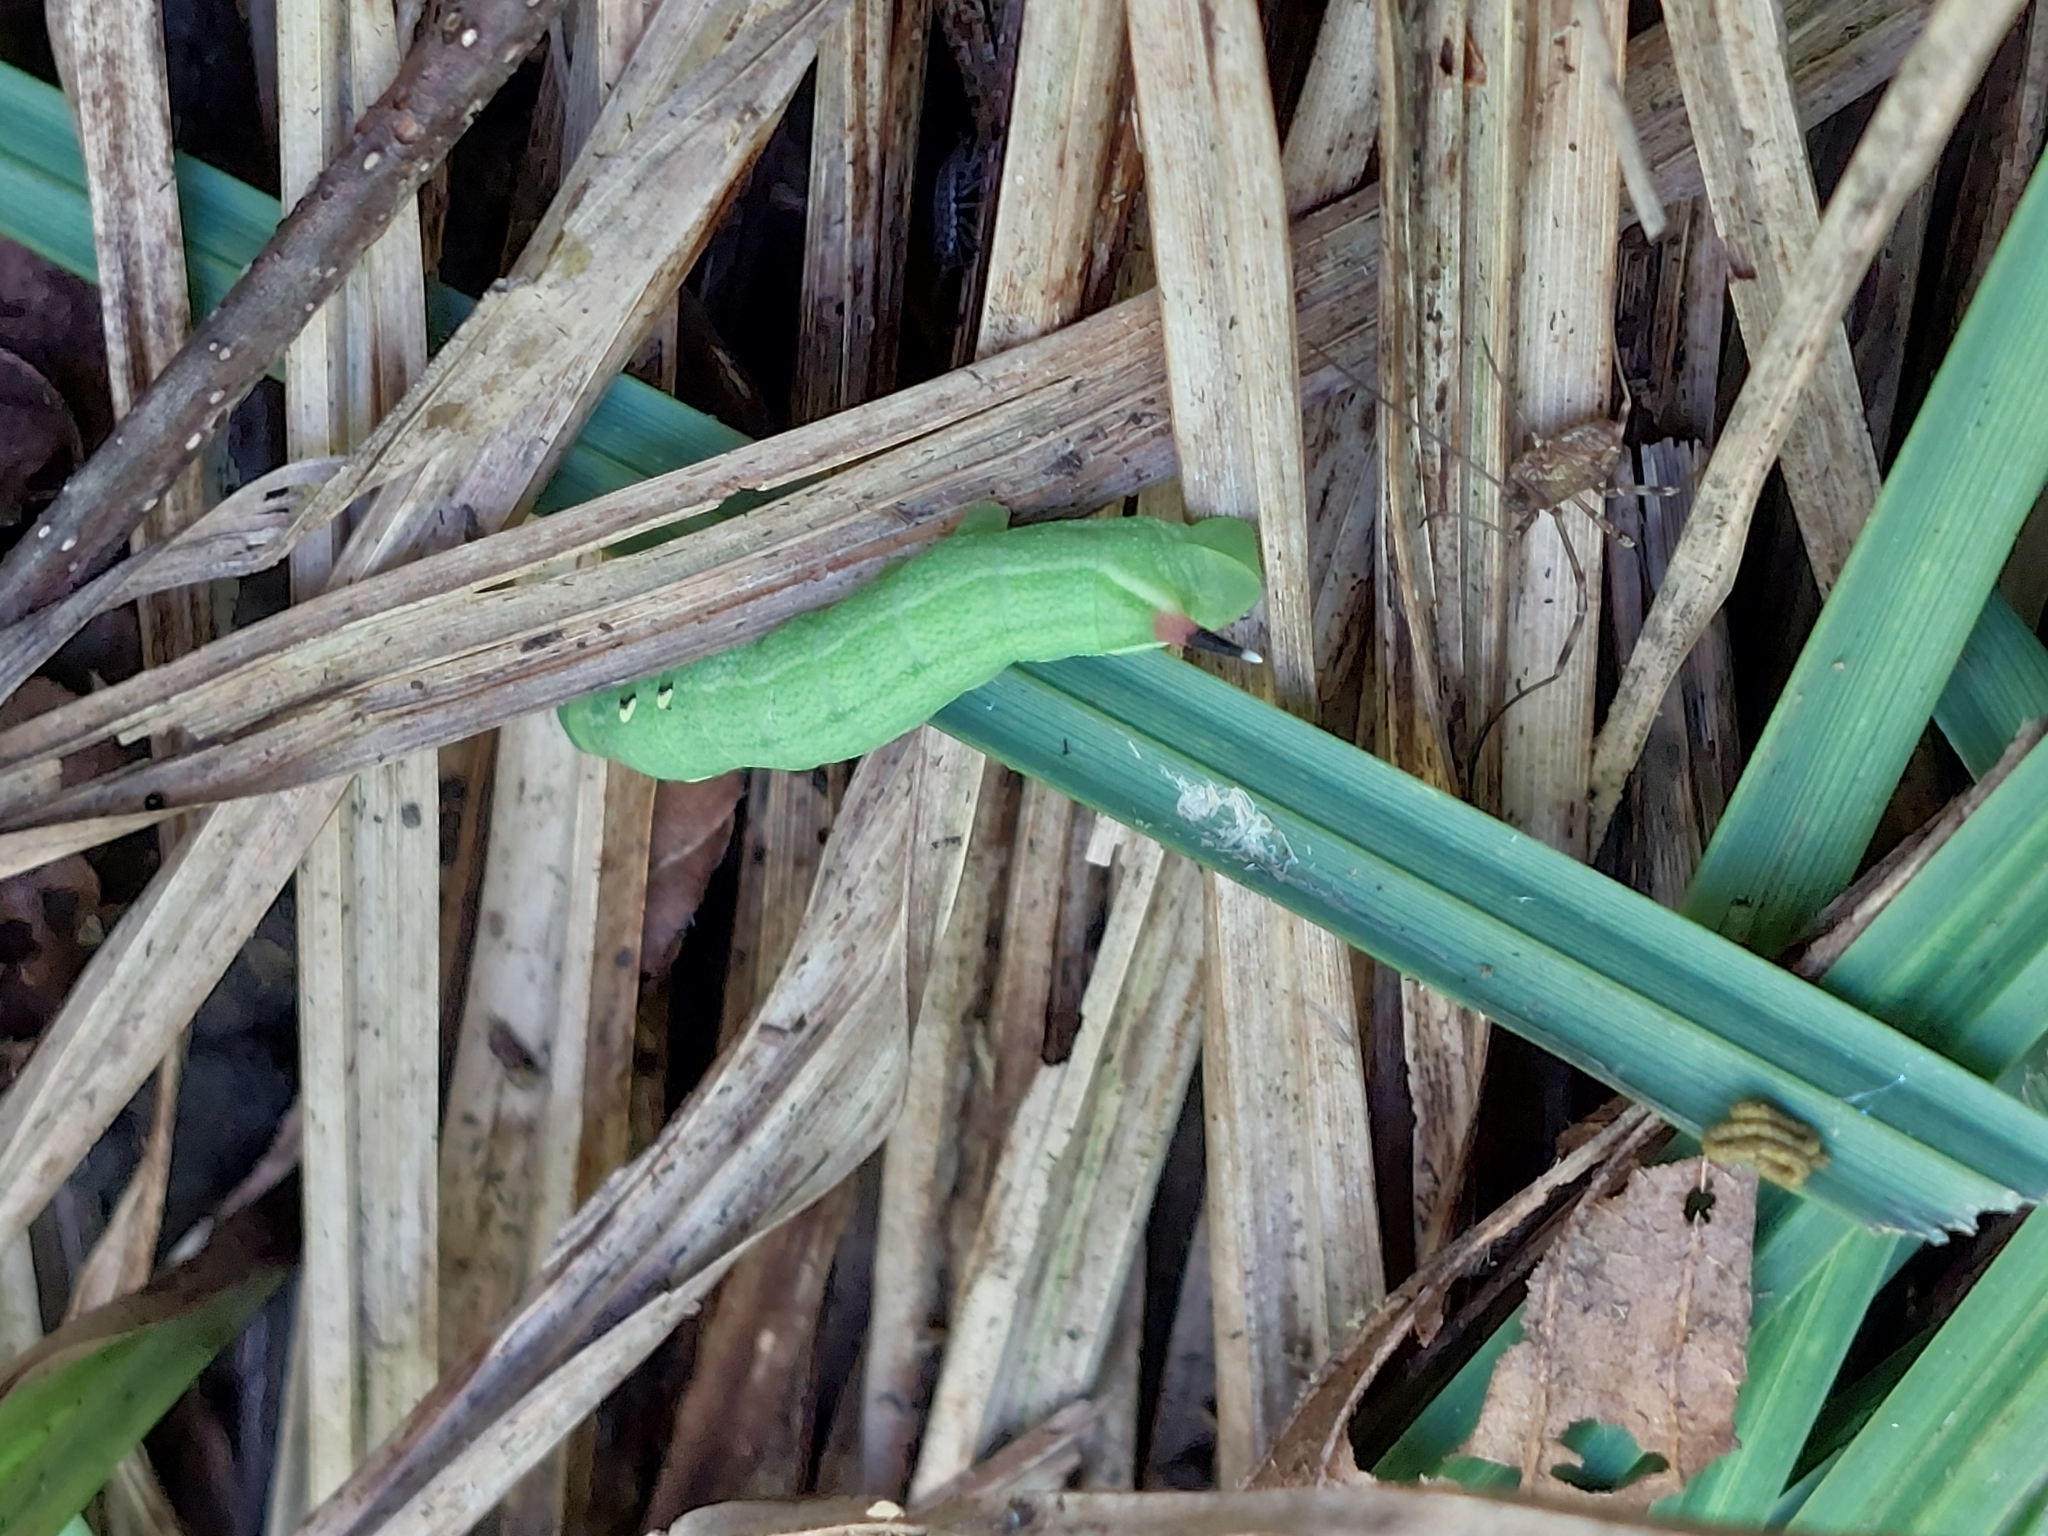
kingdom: Animalia
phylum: Arthropoda
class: Insecta
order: Lepidoptera
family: Sphingidae
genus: Deilephila
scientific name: Deilephila elpenor
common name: Elephant hawk-moth
